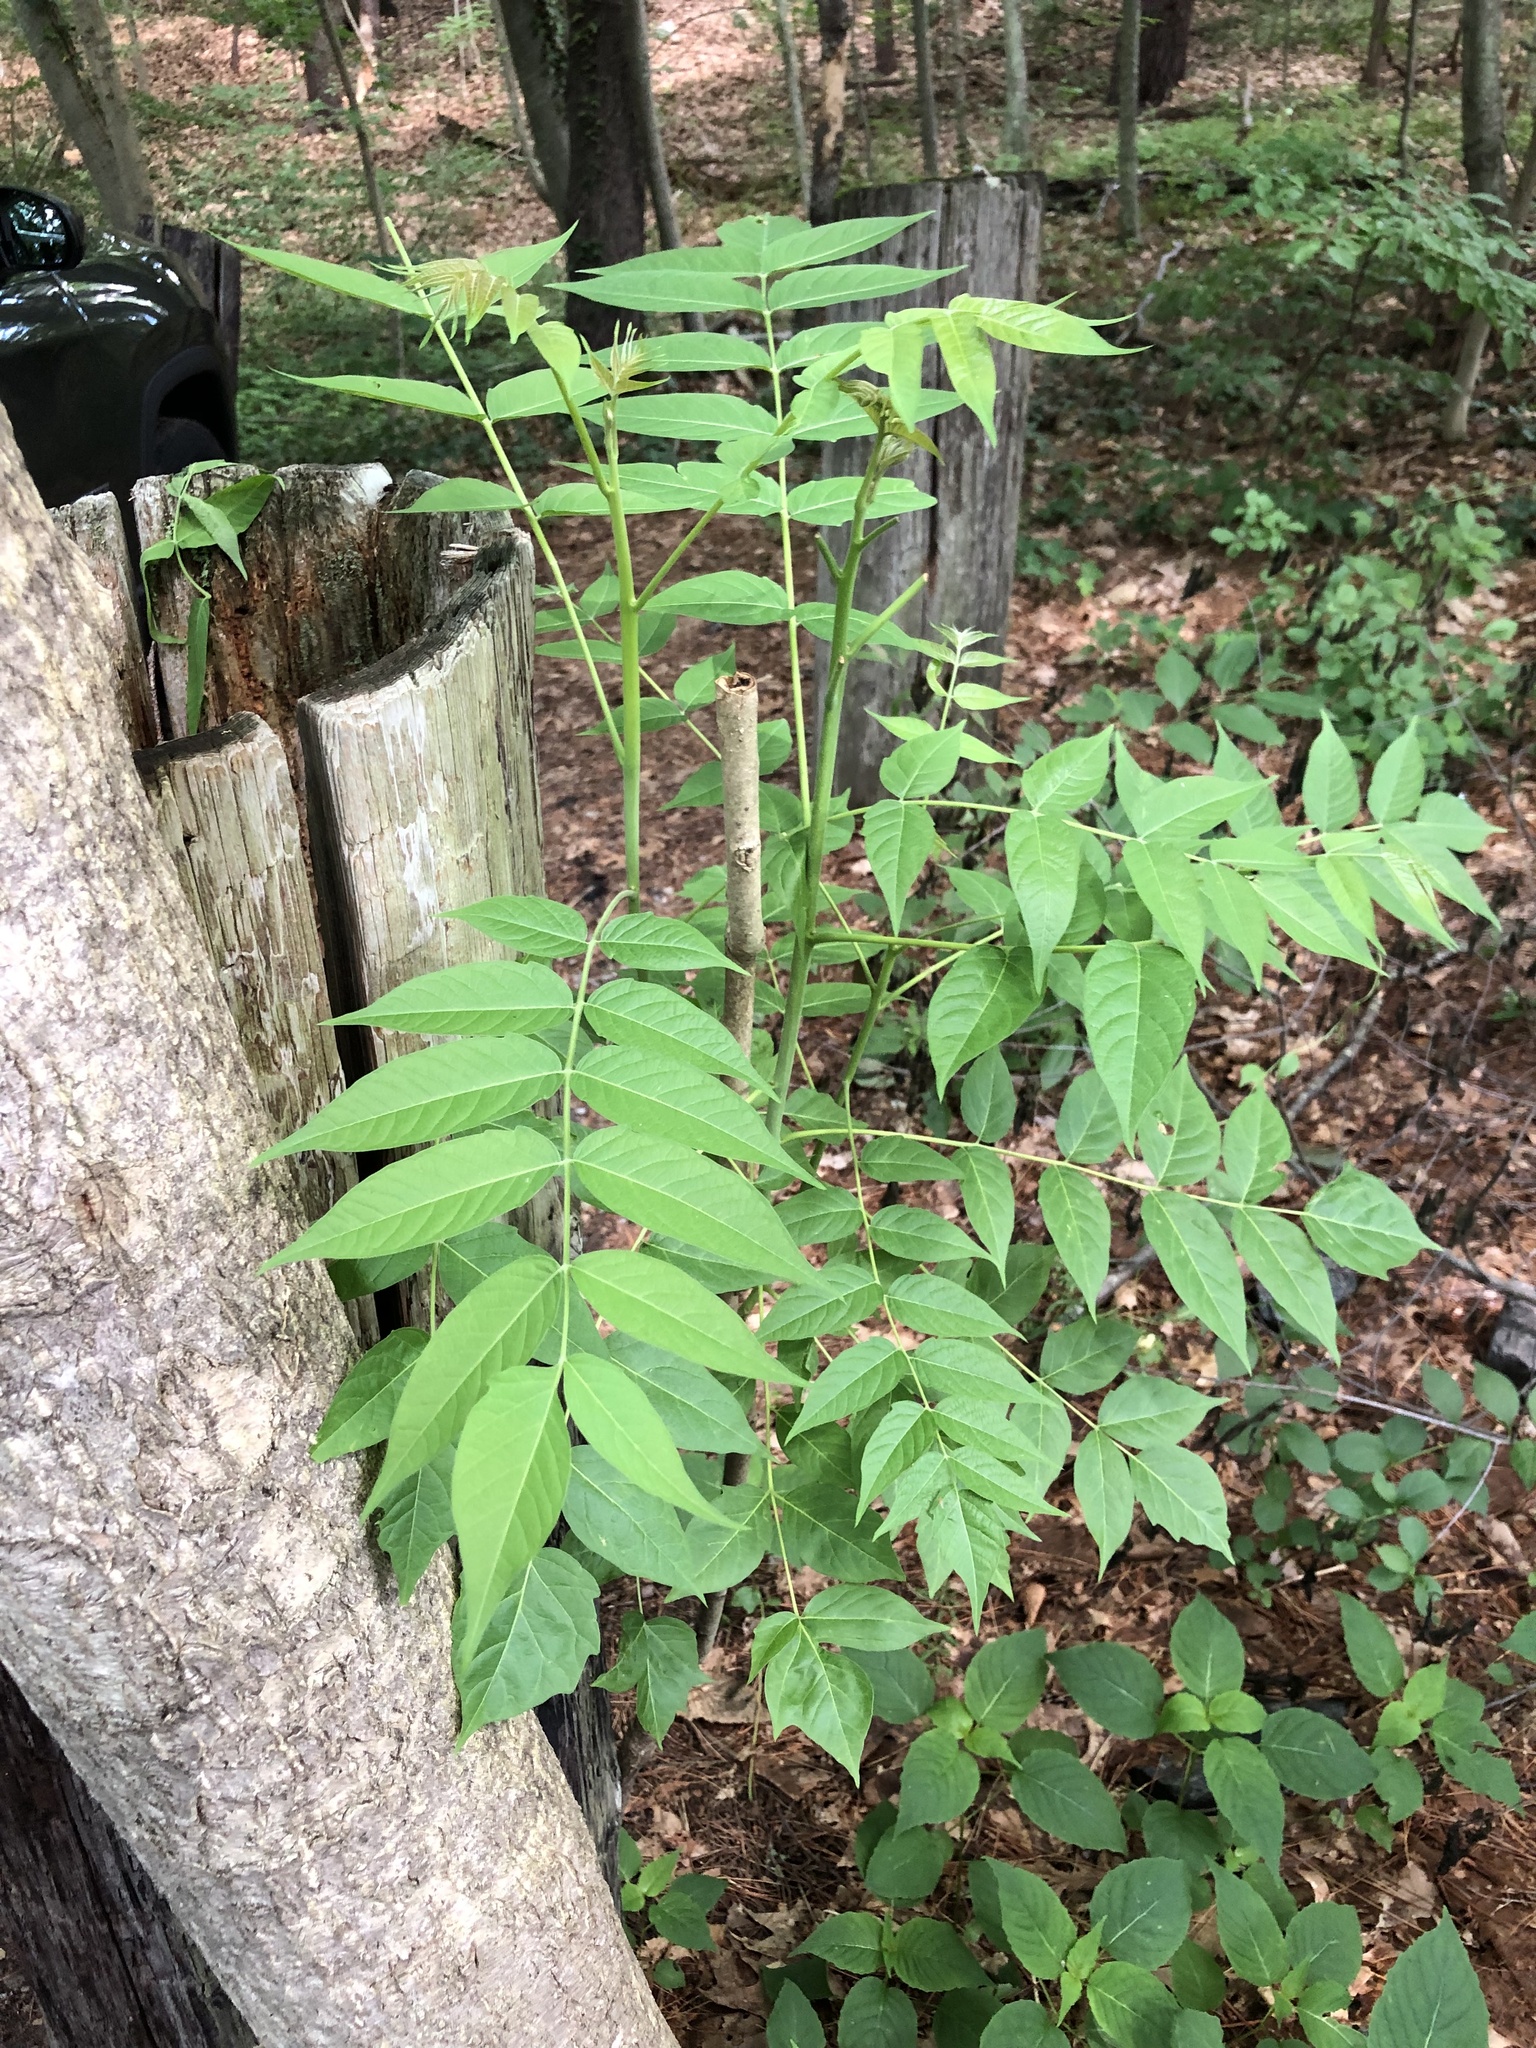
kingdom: Plantae
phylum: Tracheophyta
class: Magnoliopsida
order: Sapindales
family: Simaroubaceae
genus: Ailanthus
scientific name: Ailanthus altissima
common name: Tree-of-heaven
